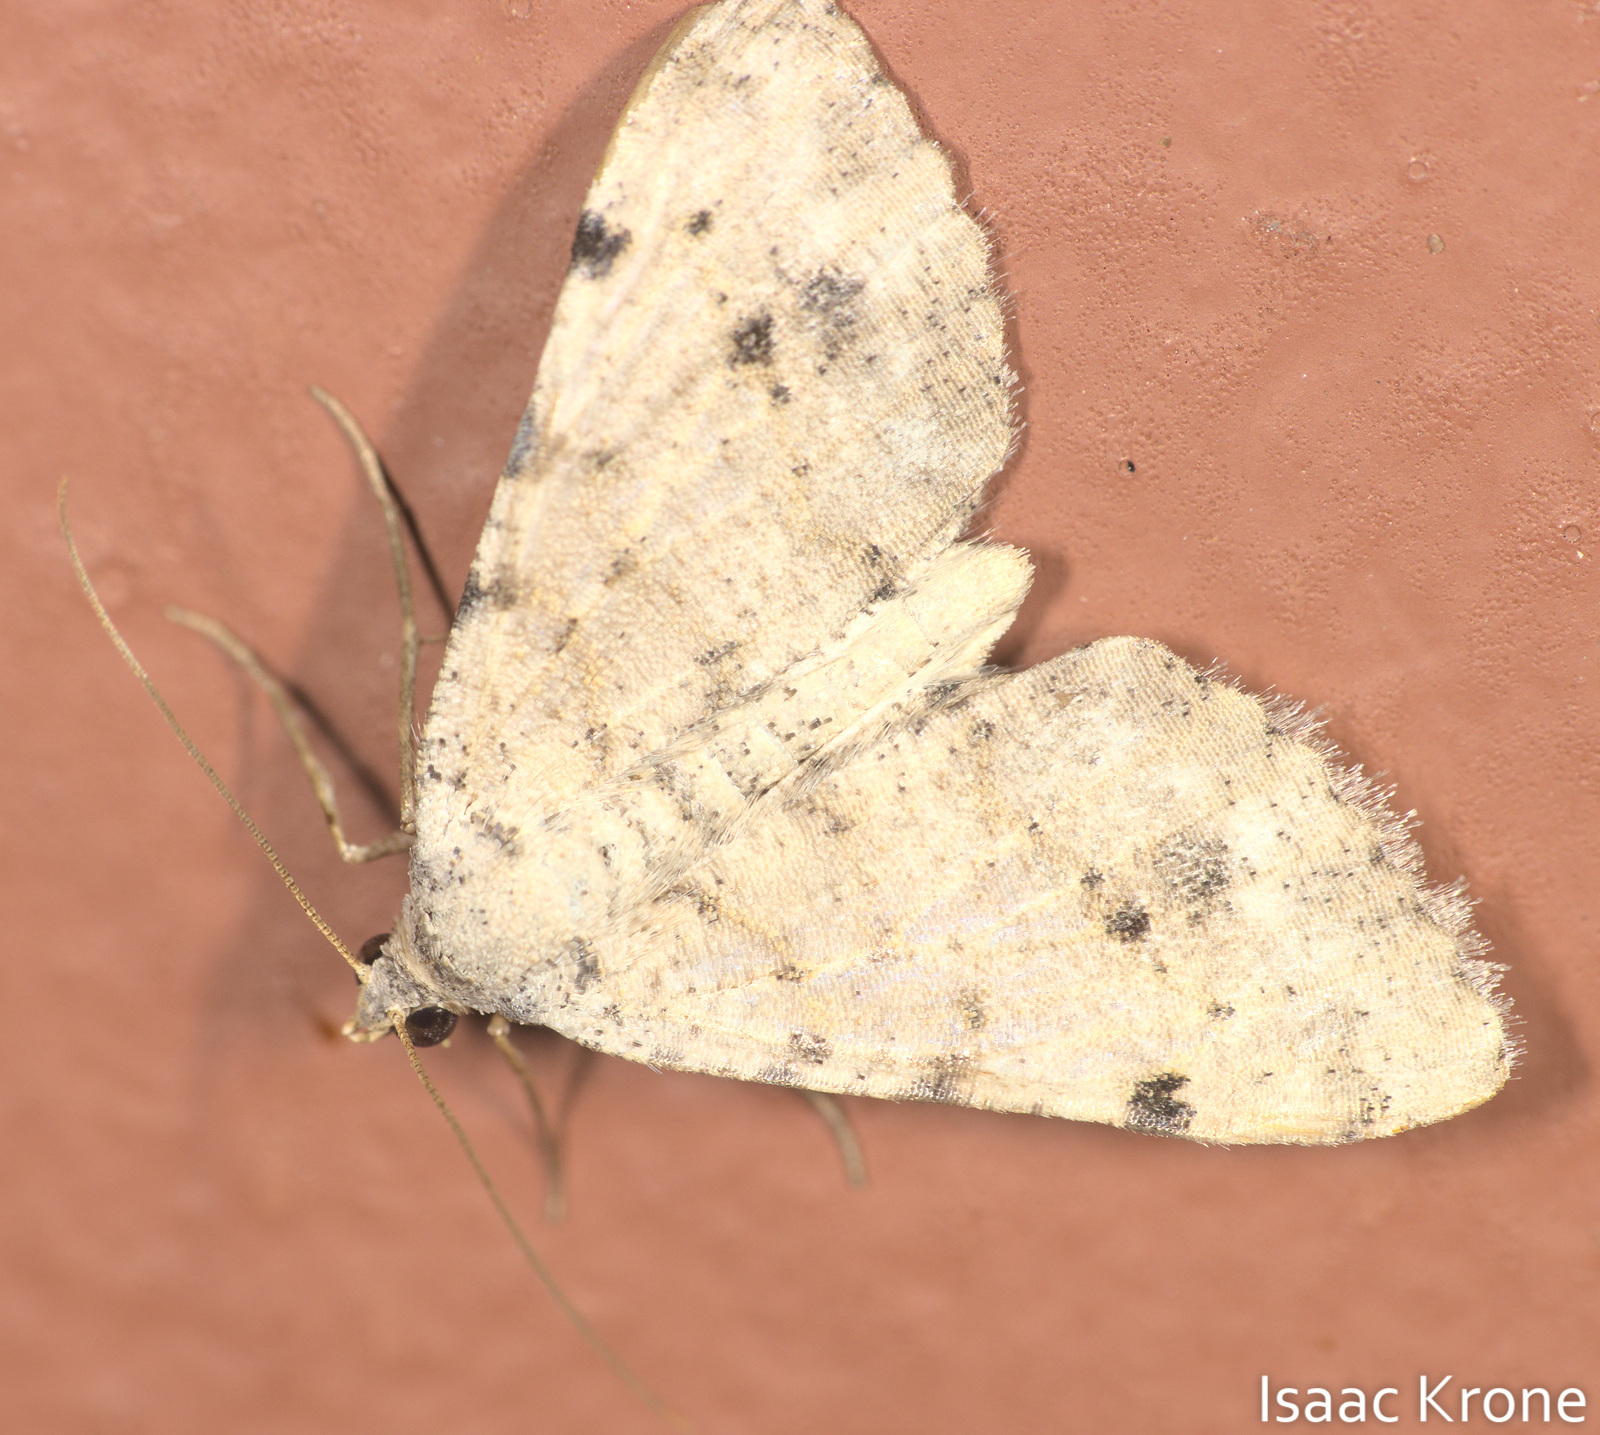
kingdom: Animalia
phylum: Arthropoda
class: Insecta
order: Lepidoptera
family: Geometridae
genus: Digrammia
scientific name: Digrammia colorata
